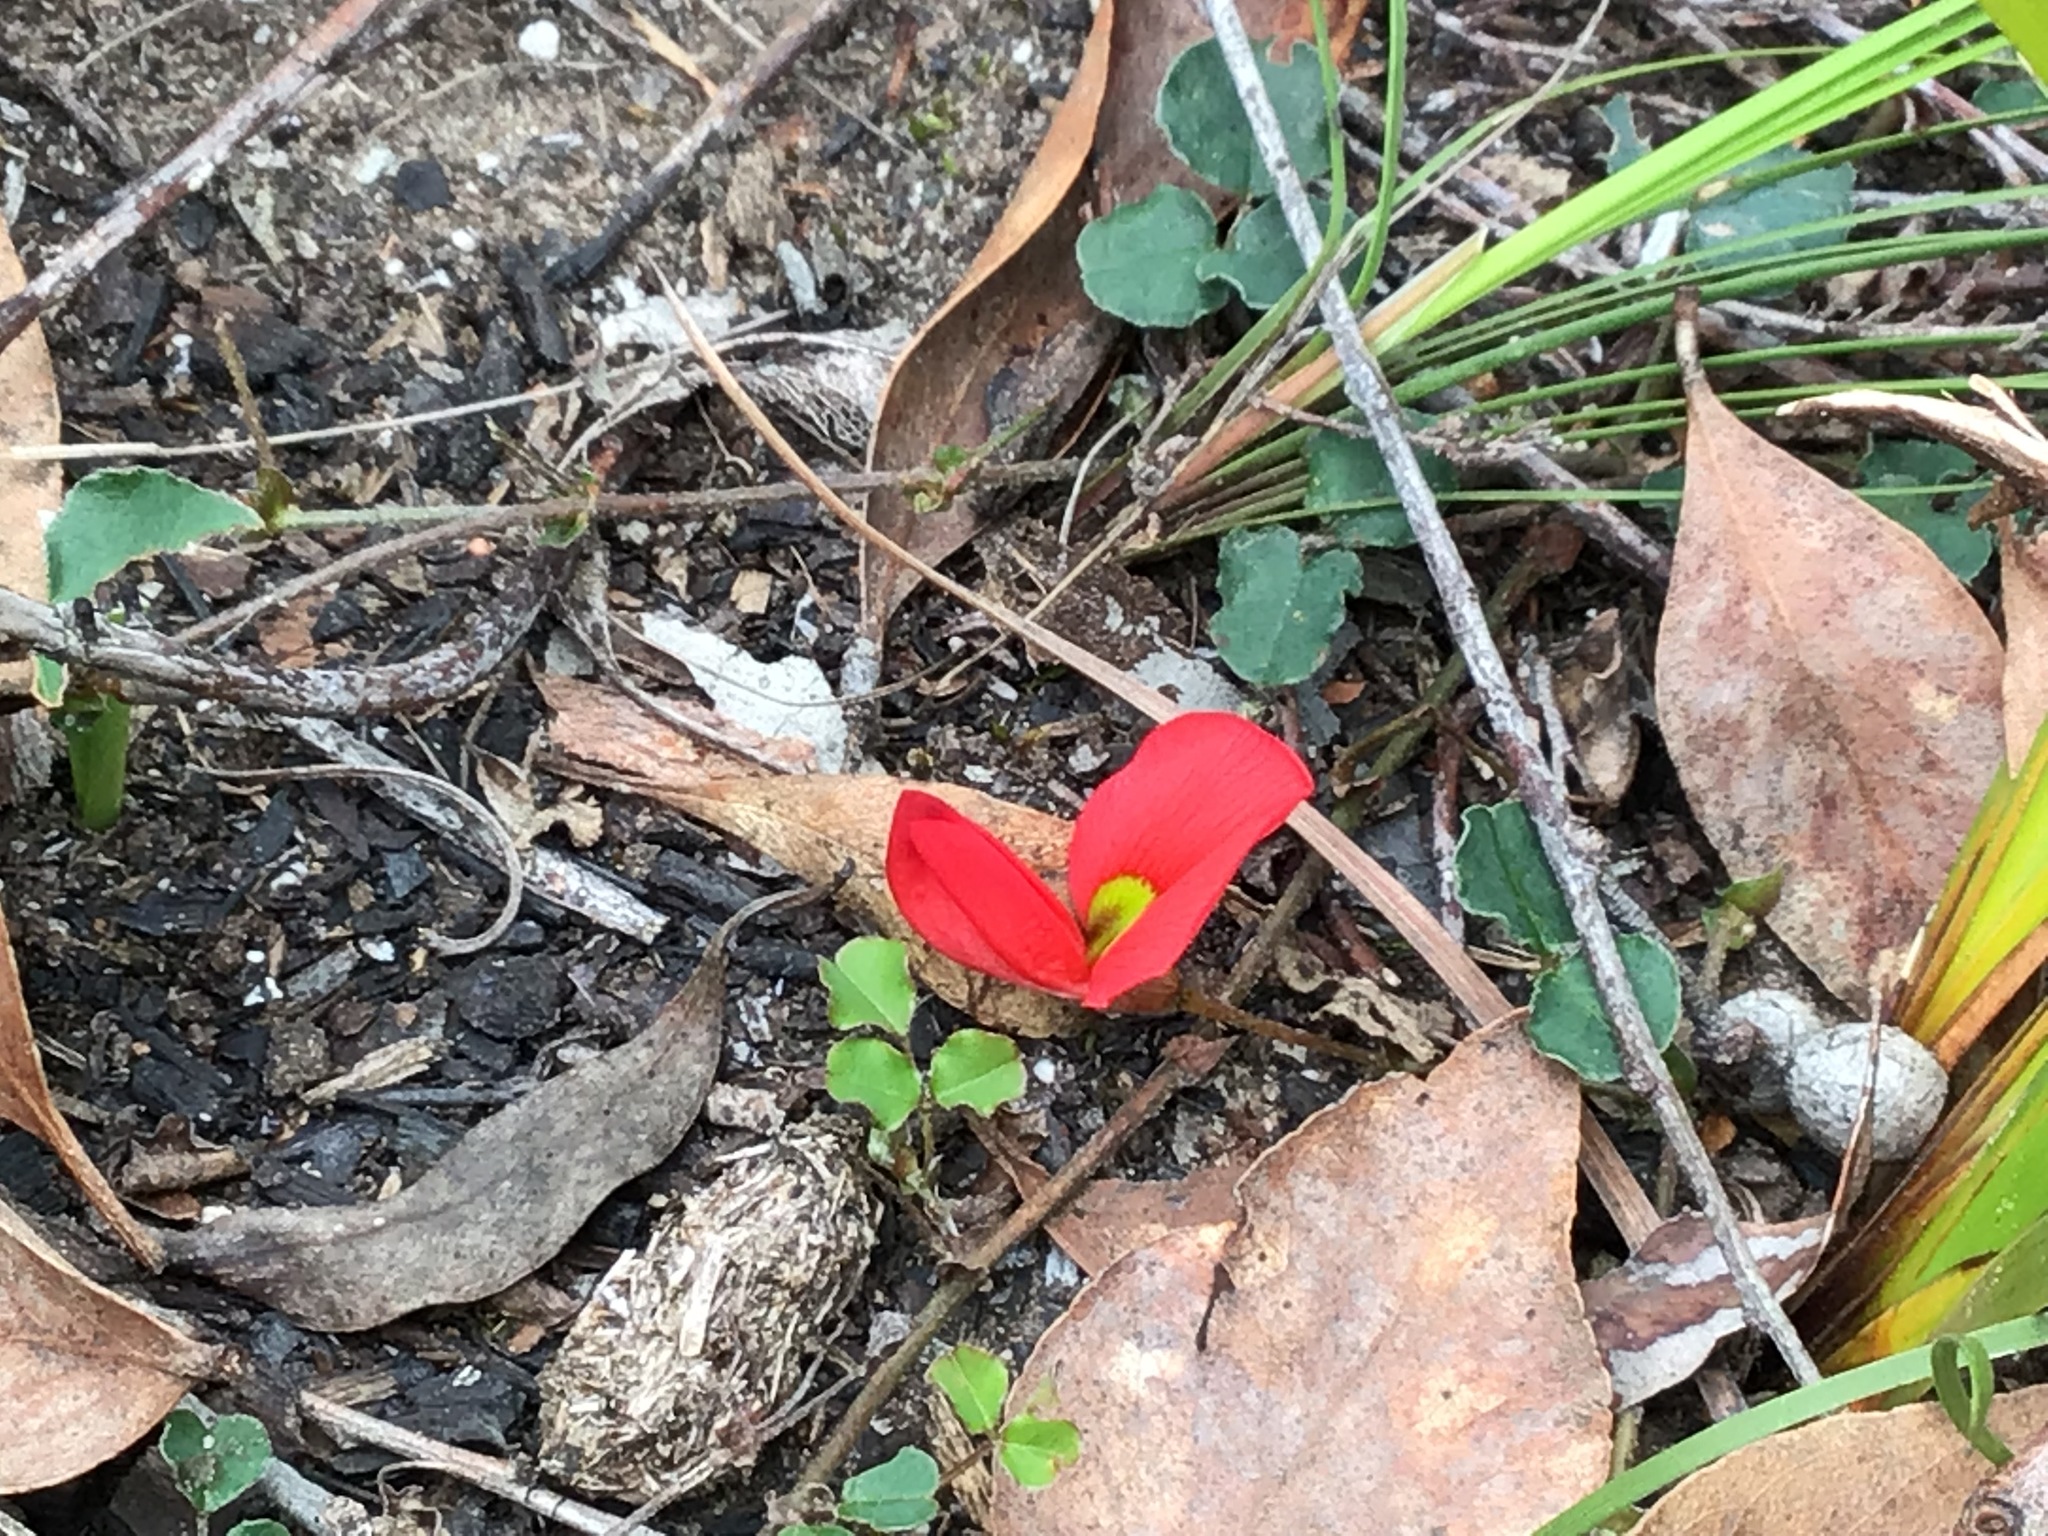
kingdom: Plantae
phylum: Tracheophyta
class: Magnoliopsida
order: Fabales
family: Fabaceae
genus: Kennedia
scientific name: Kennedia prostrata
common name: Running-postman
